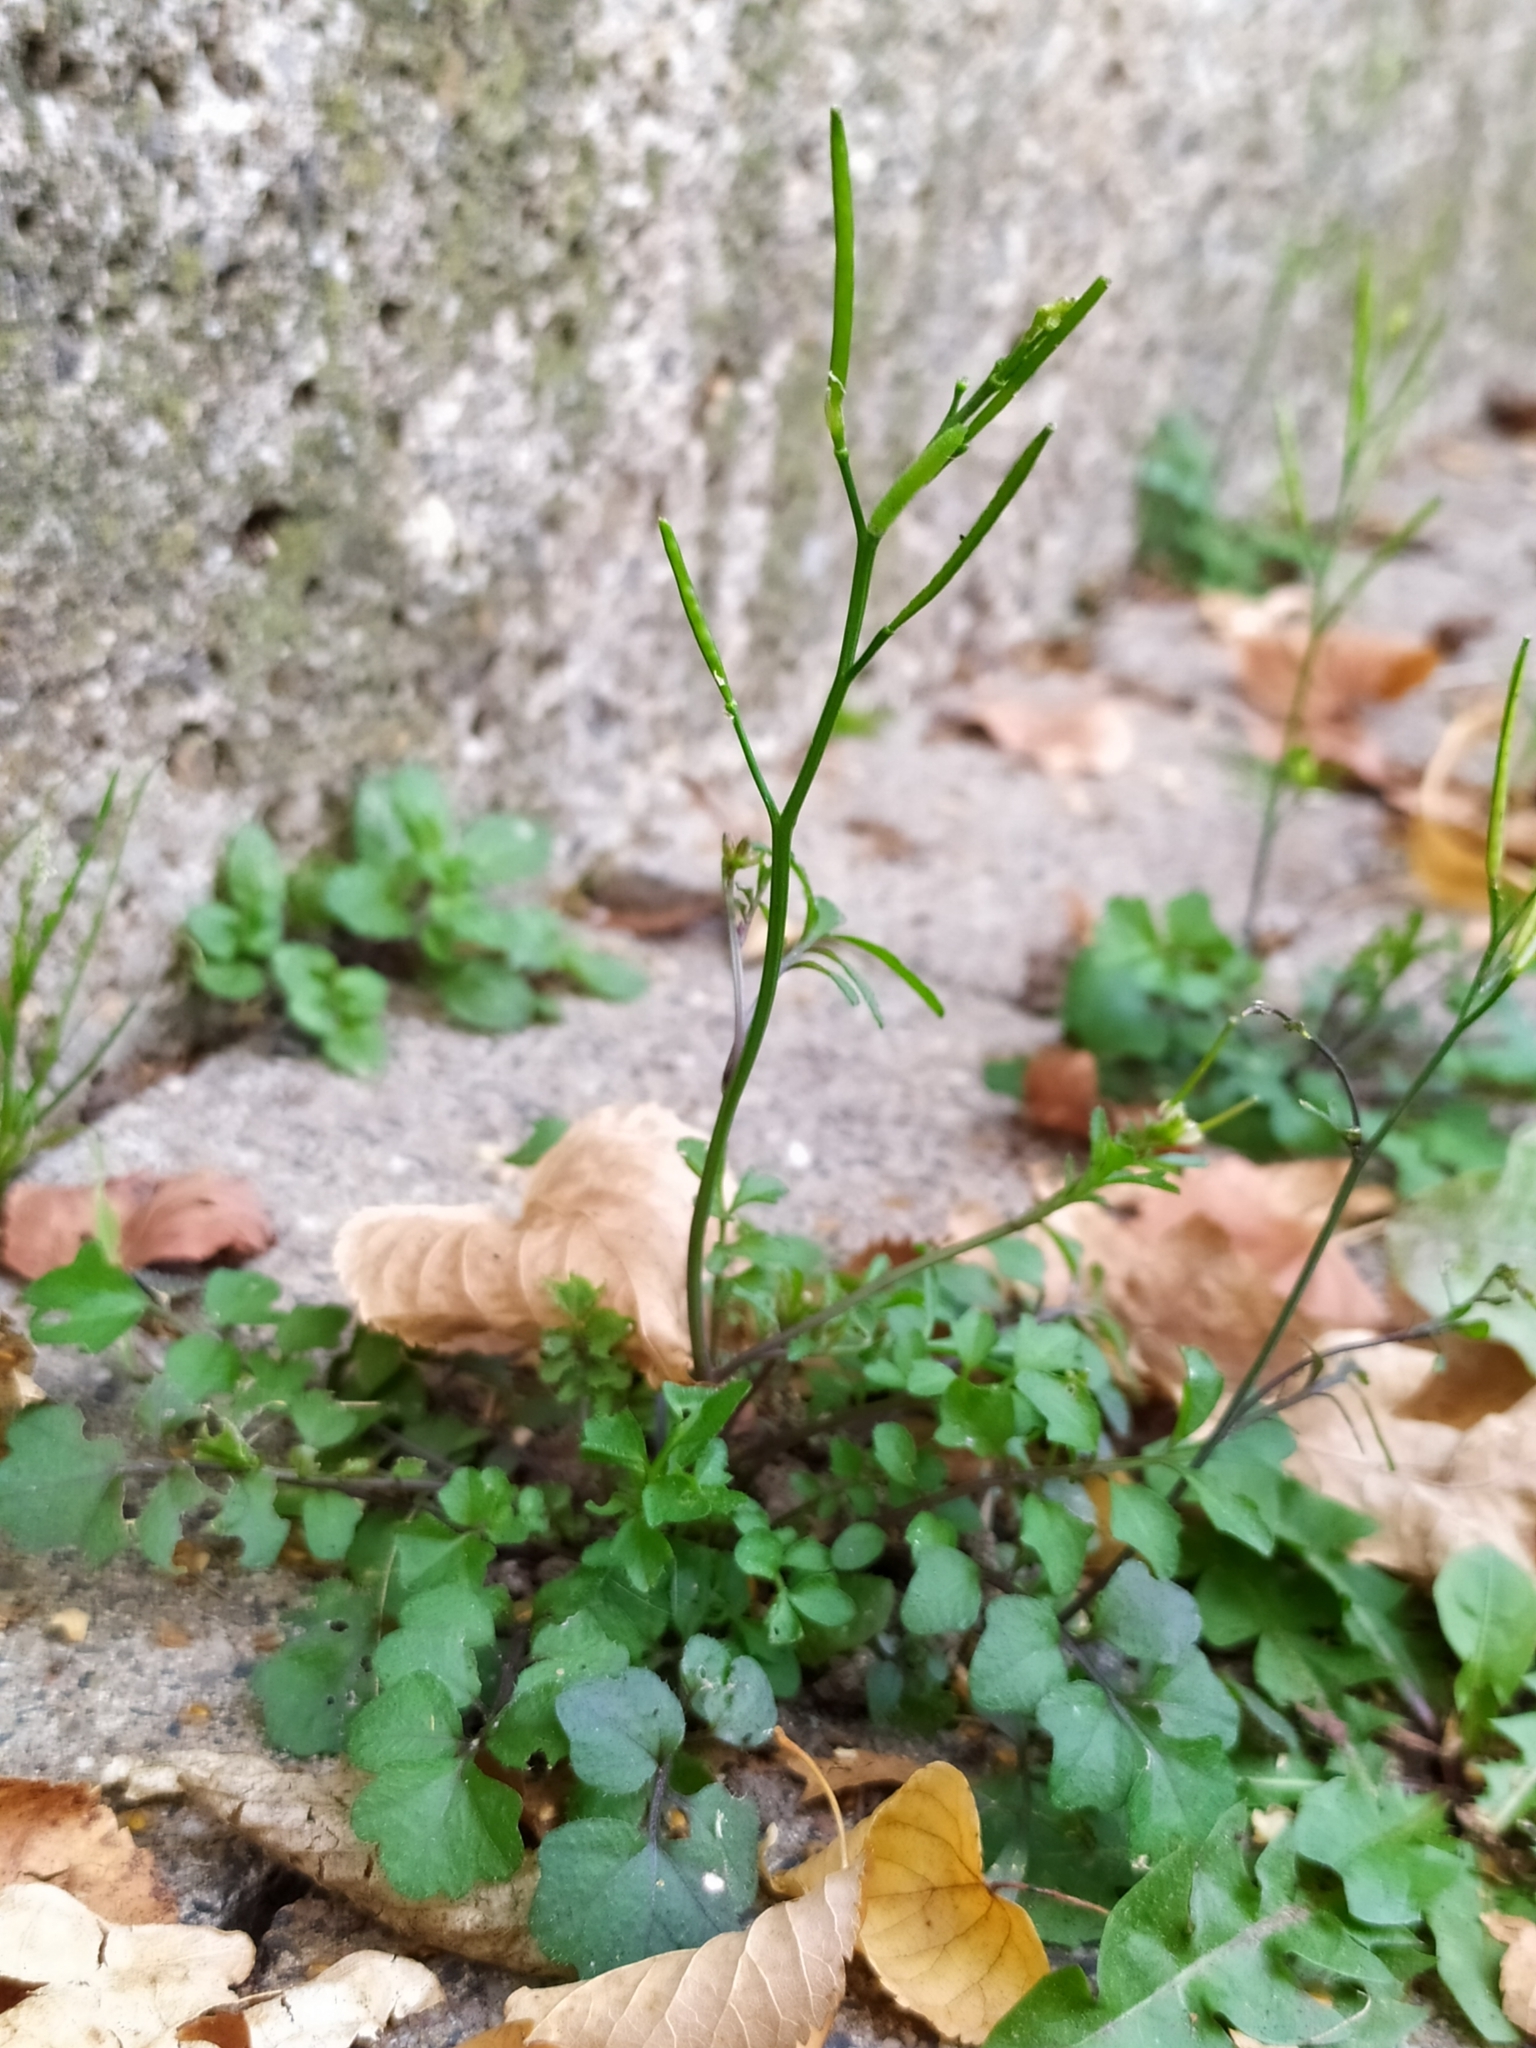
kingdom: Plantae
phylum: Tracheophyta
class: Magnoliopsida
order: Brassicales
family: Brassicaceae
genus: Cardamine
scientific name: Cardamine hirsuta
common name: Hairy bittercress
